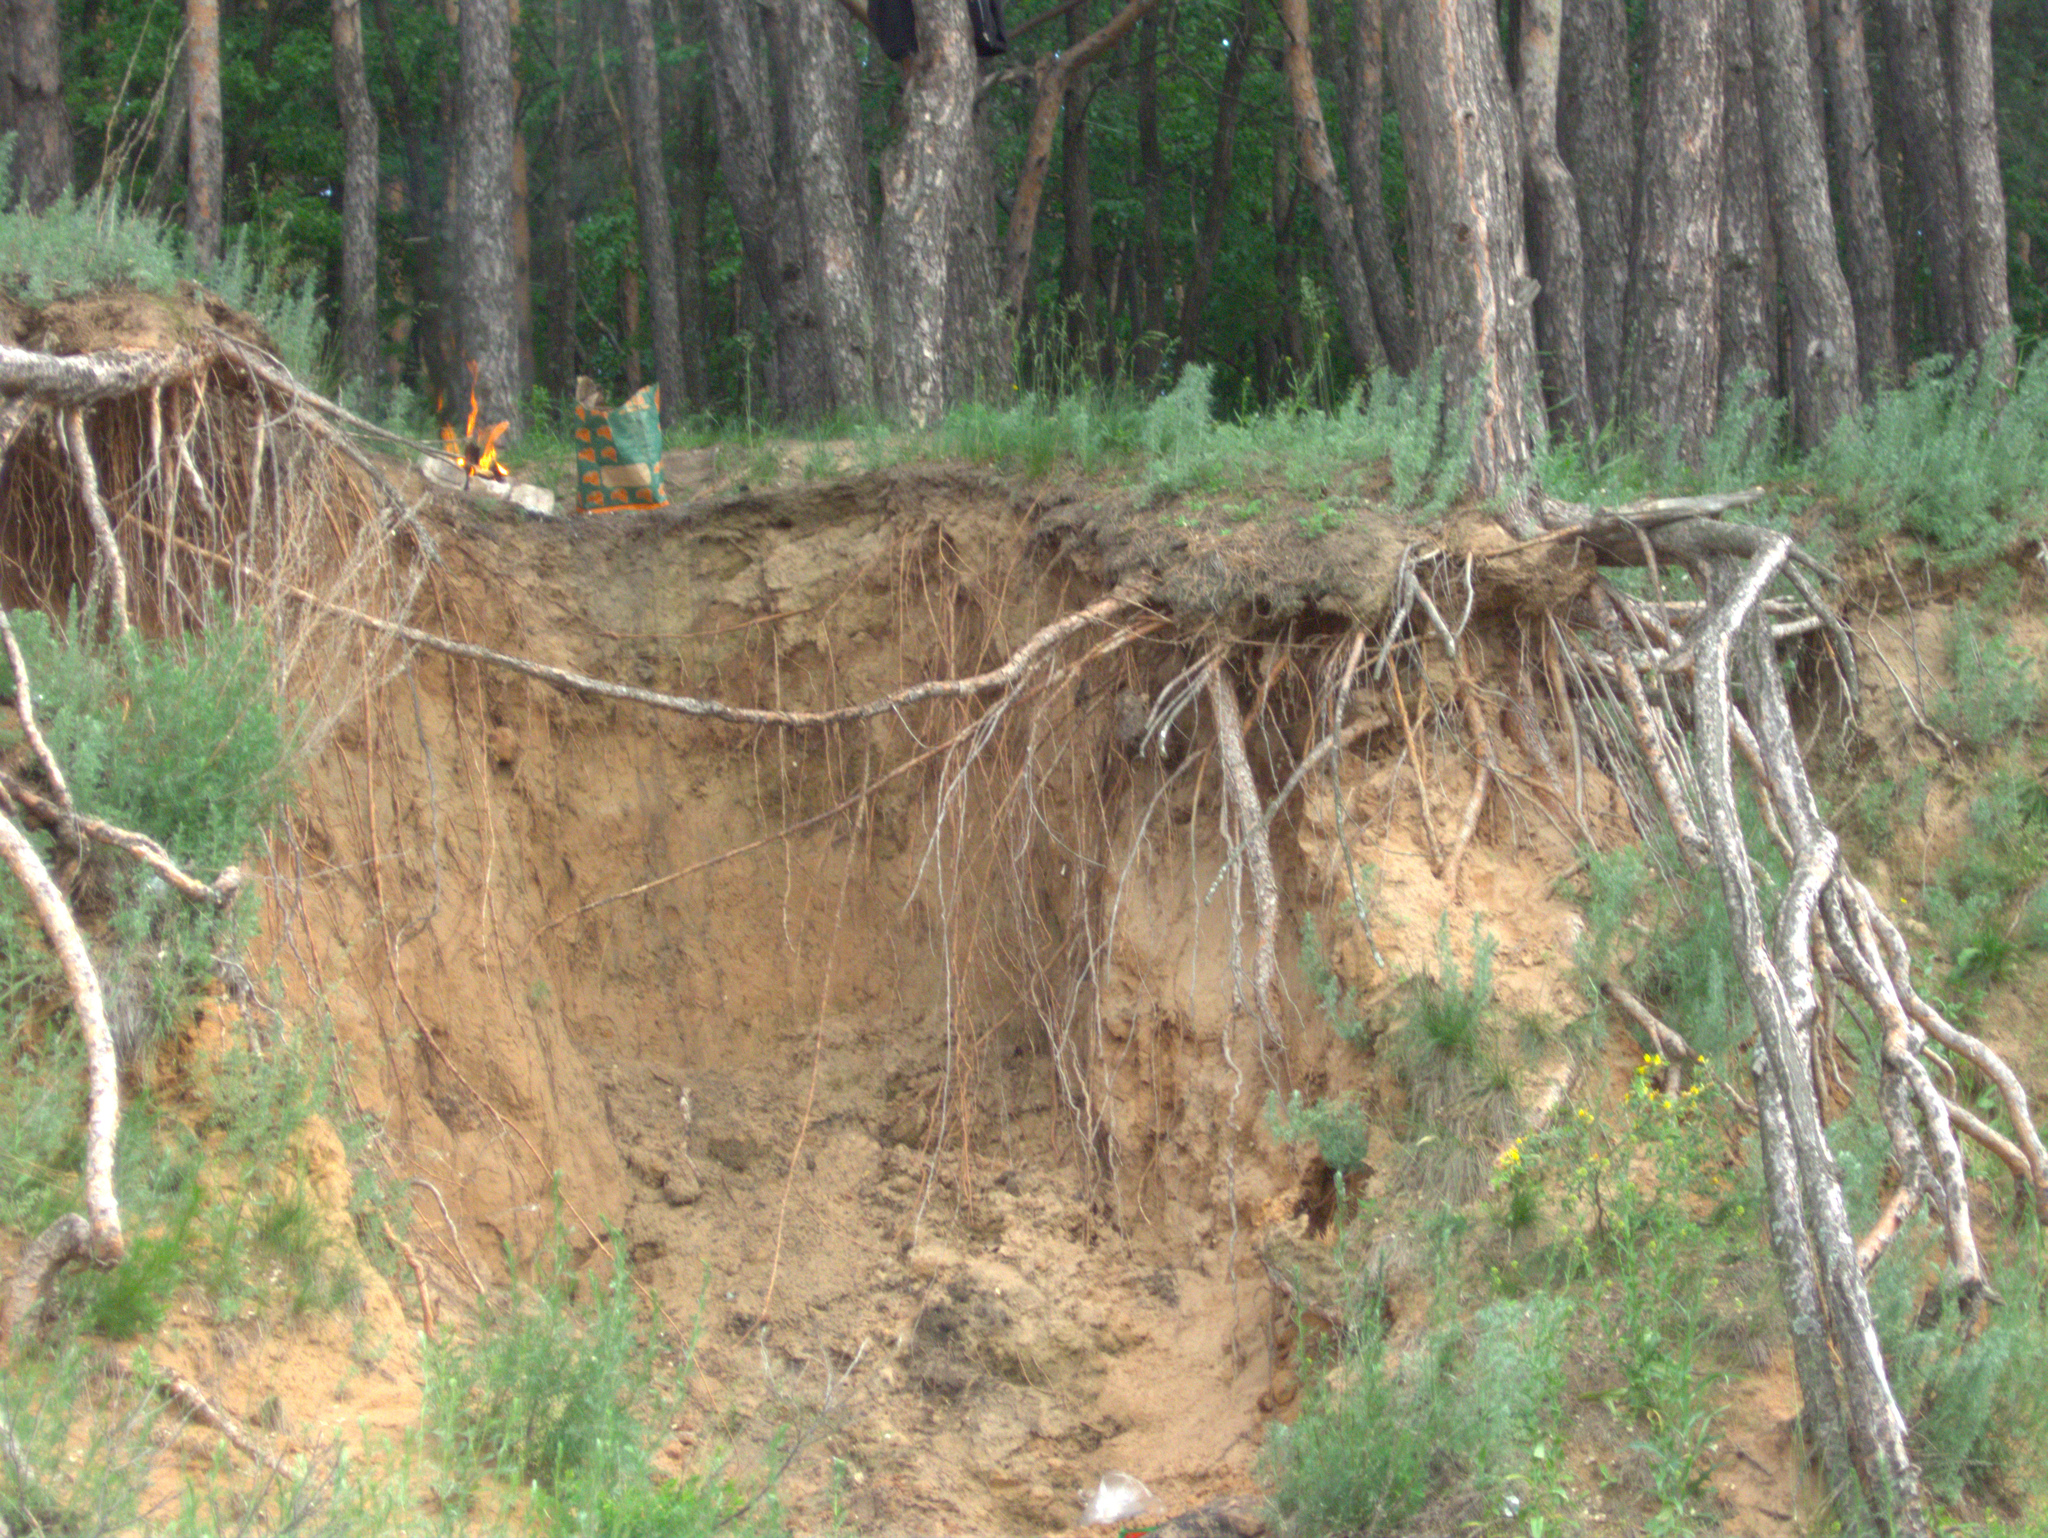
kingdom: Plantae
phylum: Tracheophyta
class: Pinopsida
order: Pinales
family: Pinaceae
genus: Pinus
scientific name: Pinus sylvestris
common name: Scots pine
